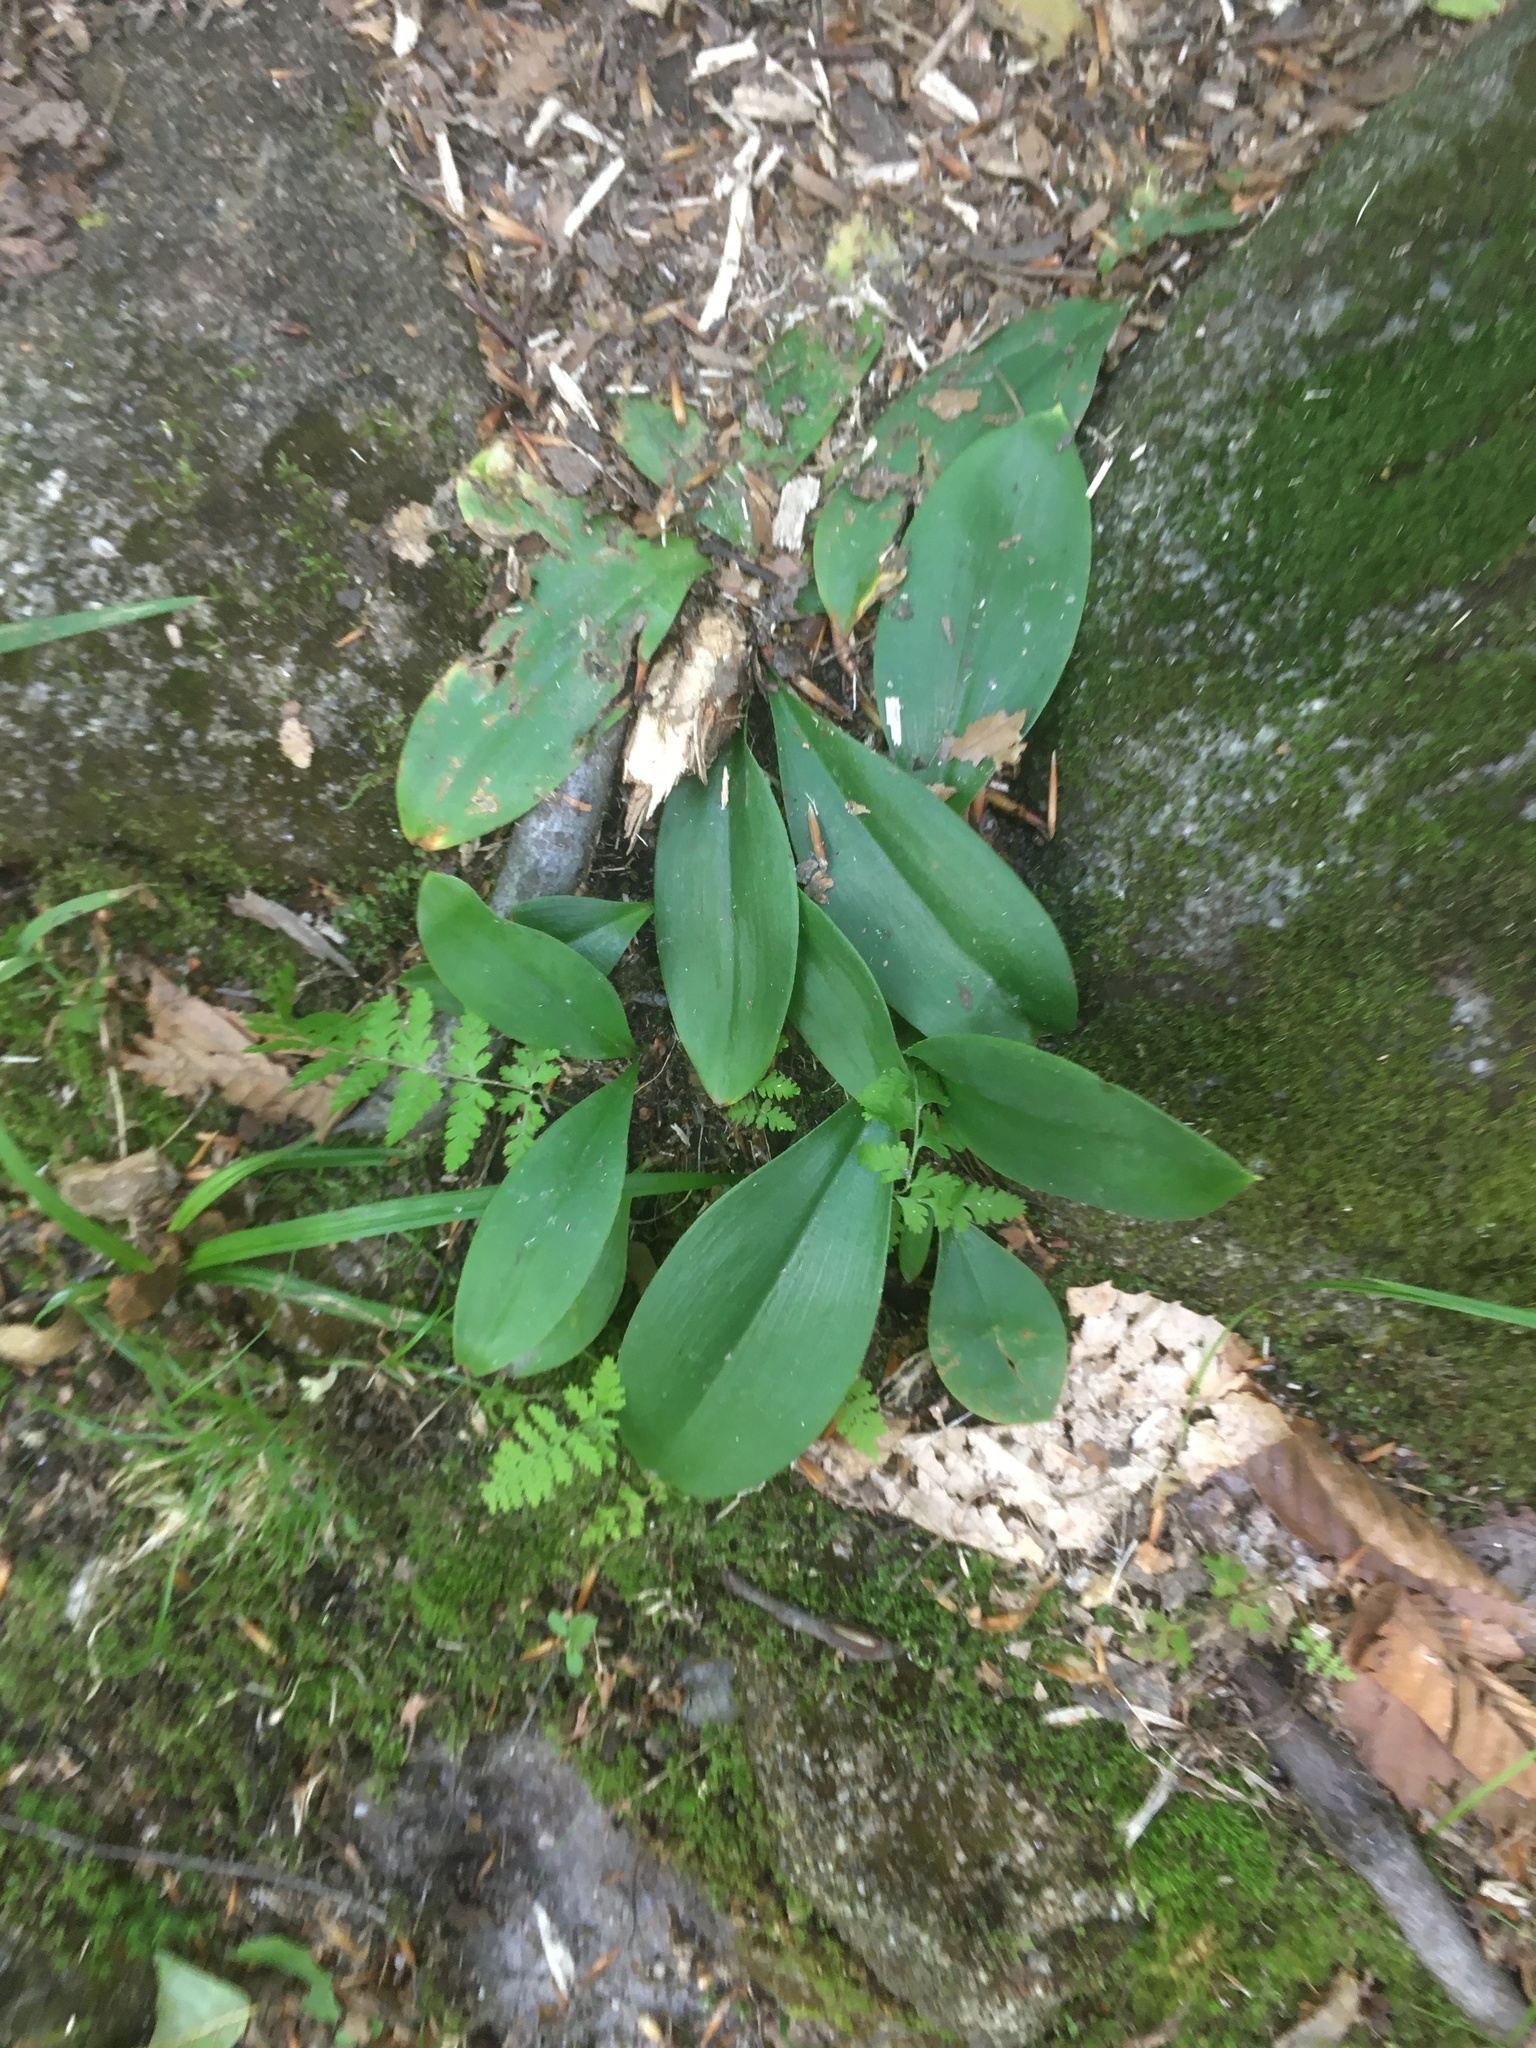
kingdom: Plantae
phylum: Tracheophyta
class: Liliopsida
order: Liliales
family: Liliaceae
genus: Clintonia
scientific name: Clintonia borealis
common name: Yellow clintonia
